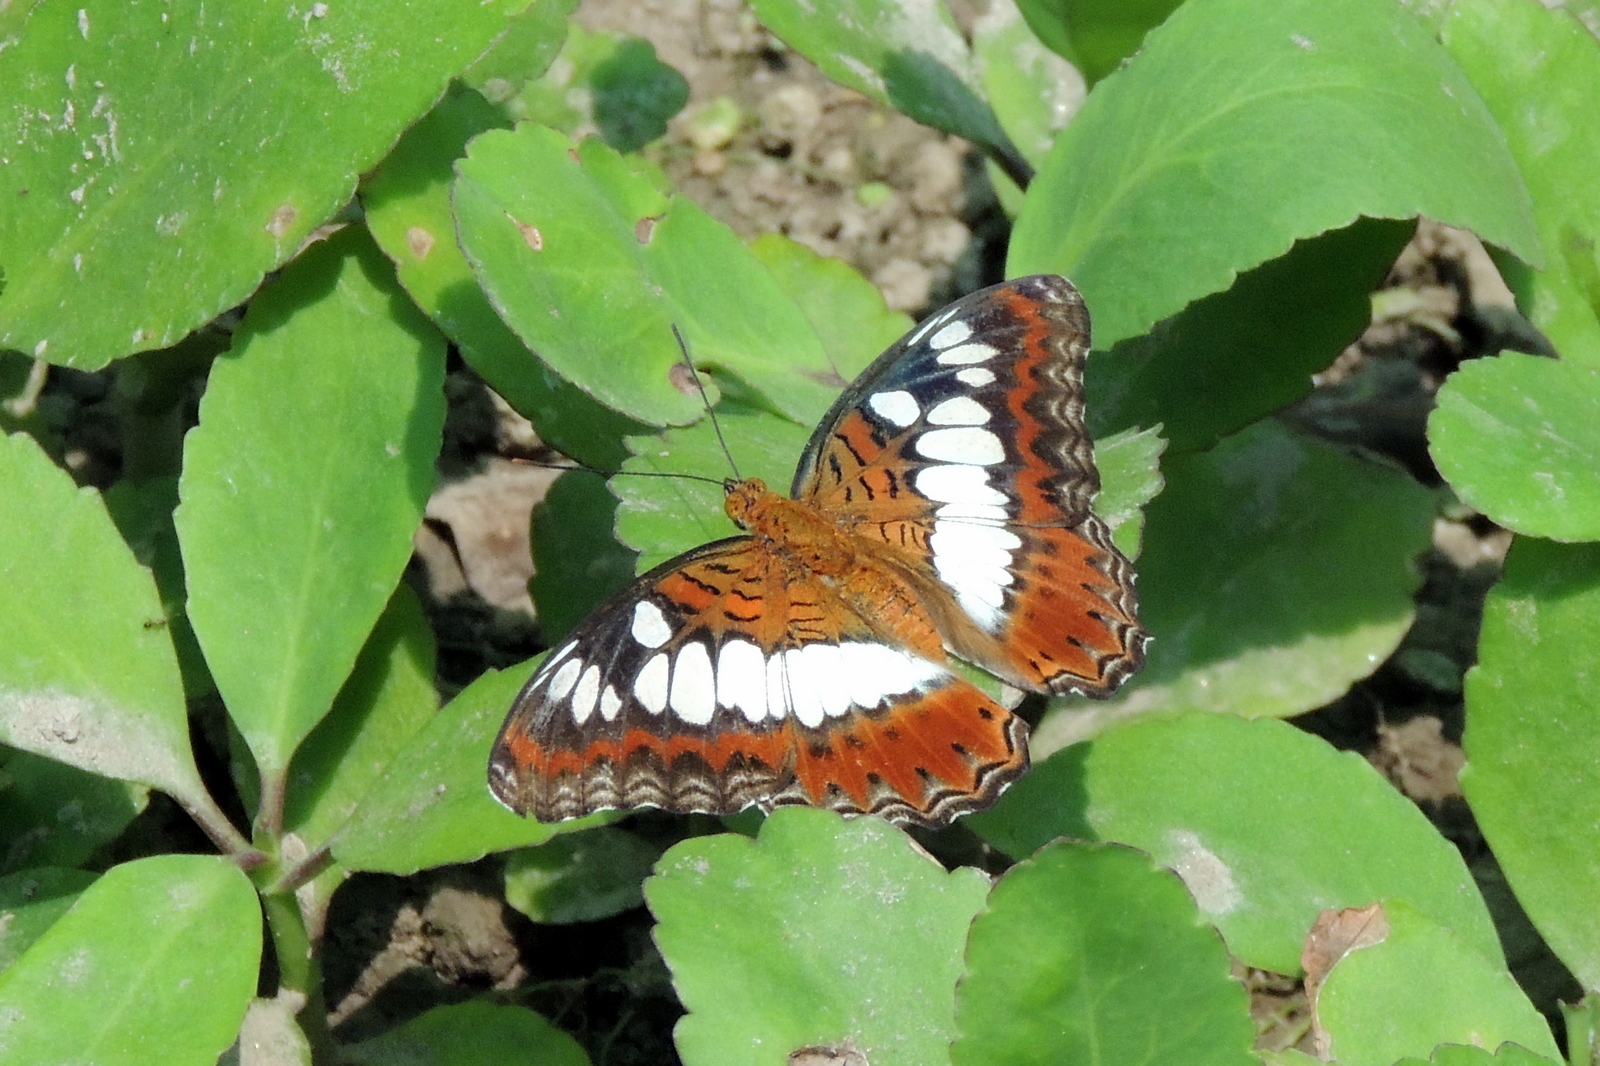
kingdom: Animalia
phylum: Arthropoda
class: Insecta
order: Lepidoptera
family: Nymphalidae
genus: Limenitis
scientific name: Limenitis Moduza procris
